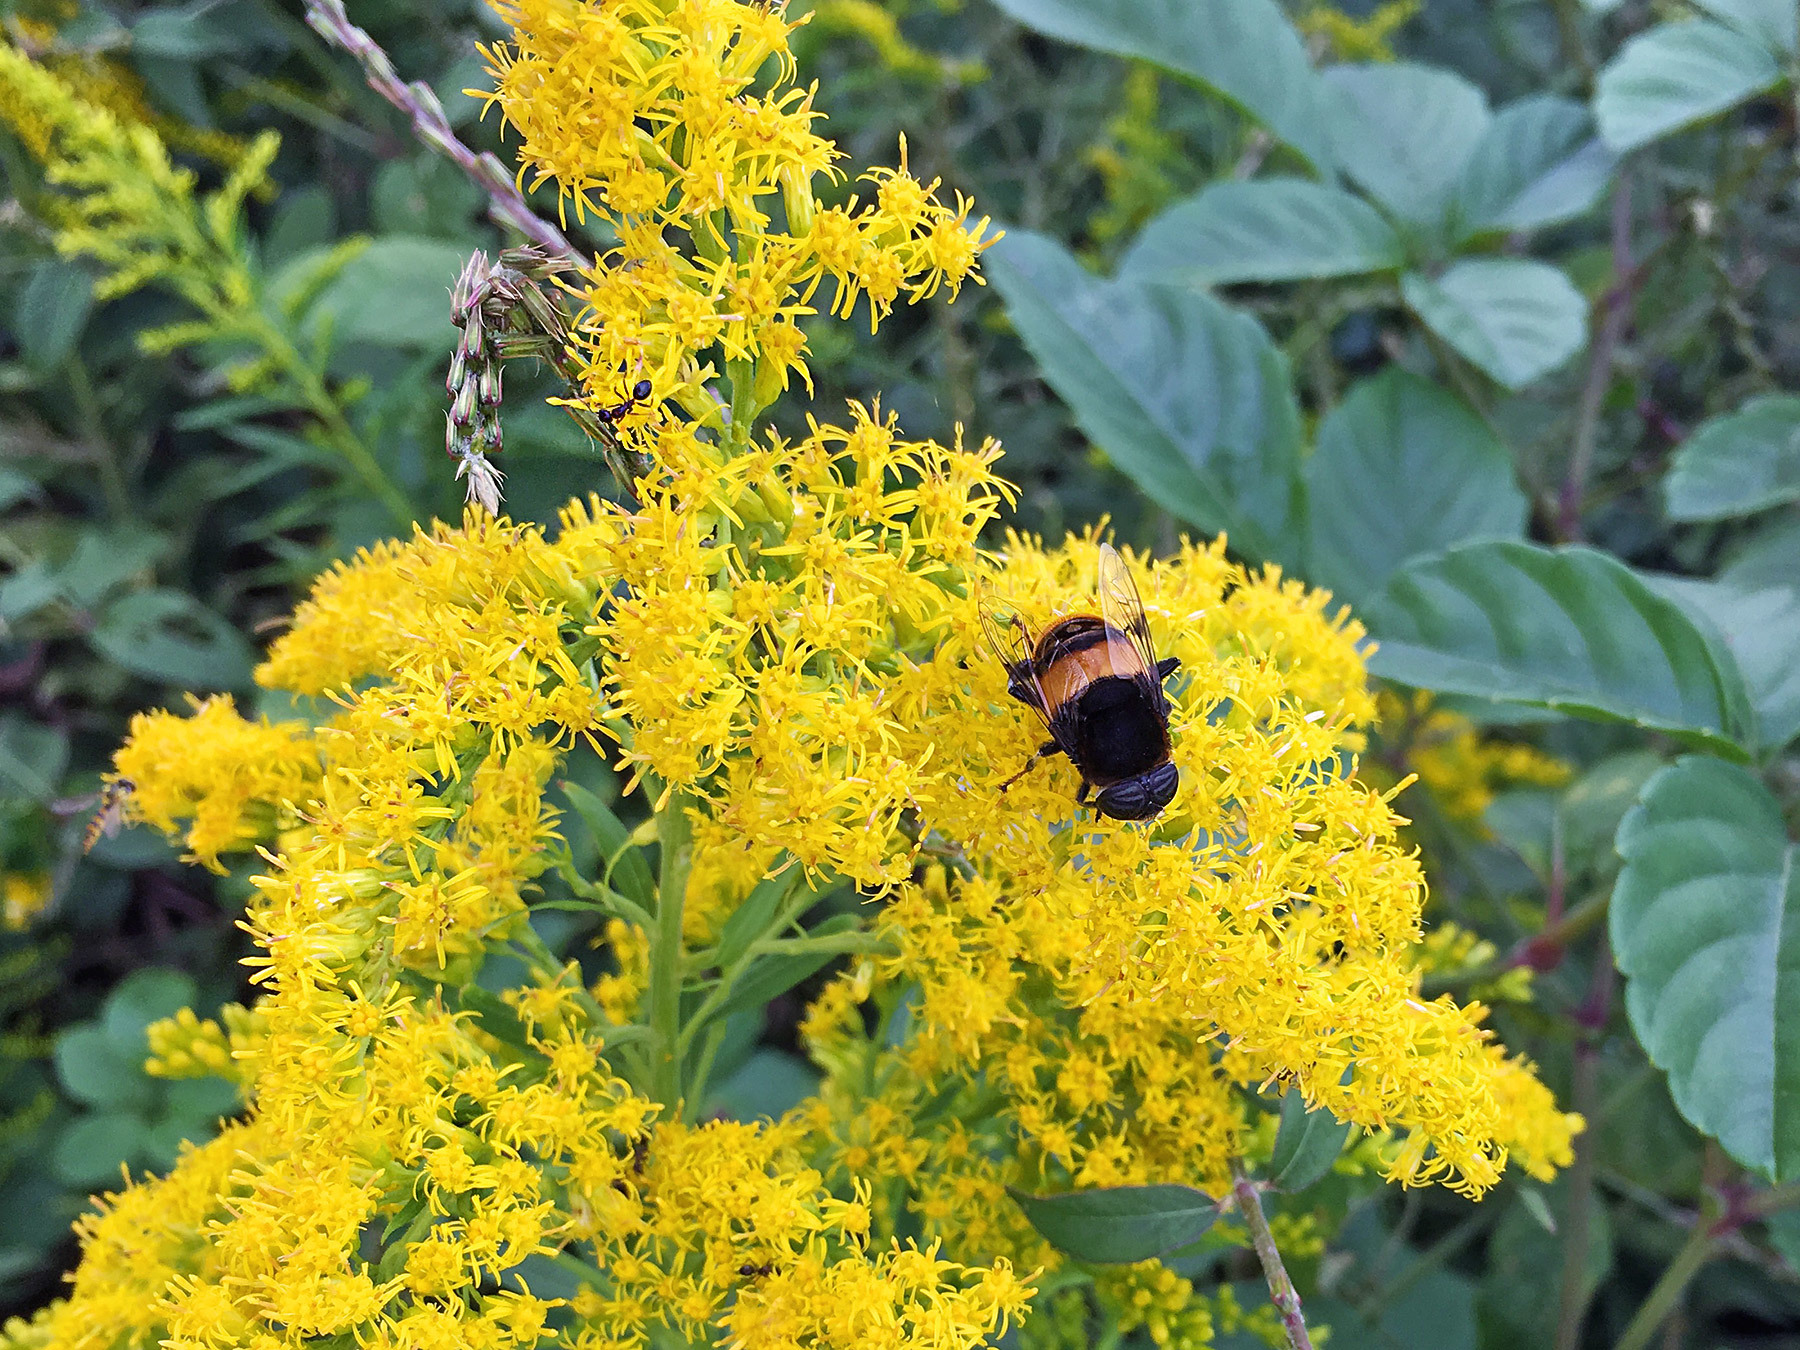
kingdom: Animalia
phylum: Arthropoda
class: Insecta
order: Diptera
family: Syrphidae
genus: Phytomia
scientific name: Phytomia zonata
